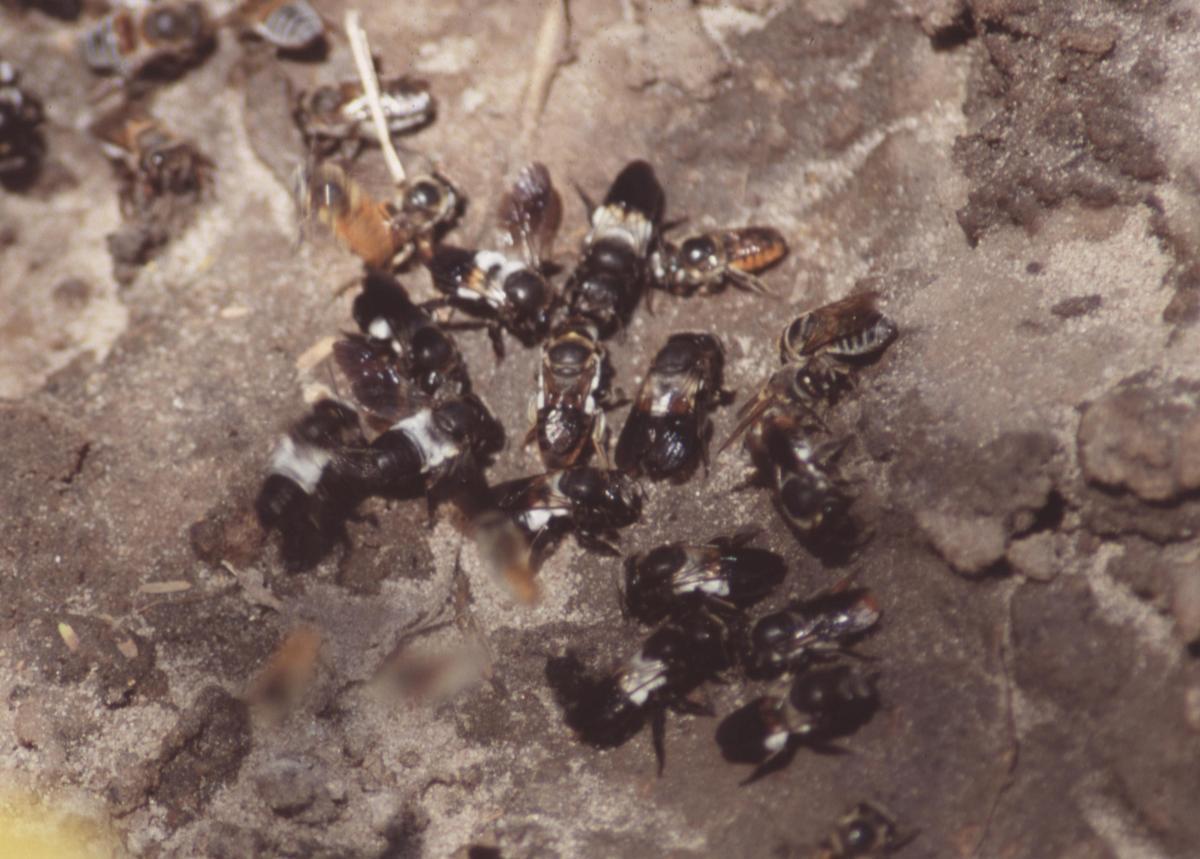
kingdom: Animalia
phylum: Arthropoda
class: Insecta
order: Hymenoptera
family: Megachilidae
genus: Megachile
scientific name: Megachile maxillosa
